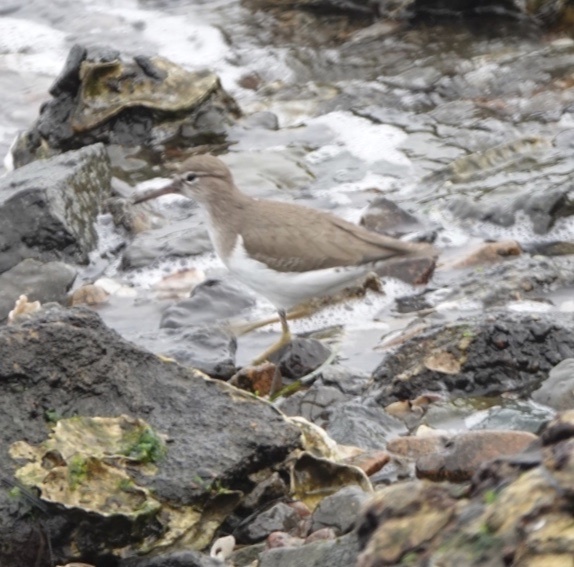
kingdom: Animalia
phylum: Chordata
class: Aves
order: Charadriiformes
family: Scolopacidae
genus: Actitis
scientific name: Actitis macularius
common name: Spotted sandpiper
